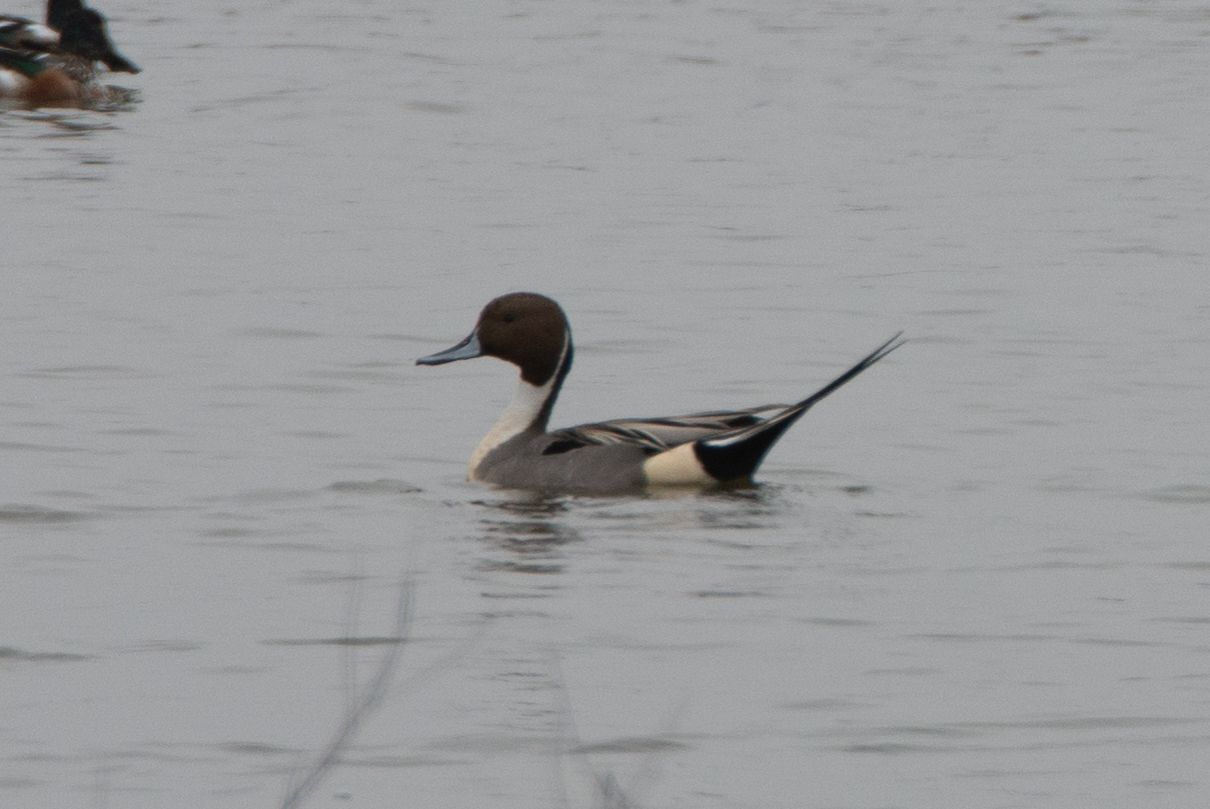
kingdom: Animalia
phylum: Chordata
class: Aves
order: Anseriformes
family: Anatidae
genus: Anas
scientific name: Anas acuta
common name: Northern pintail
